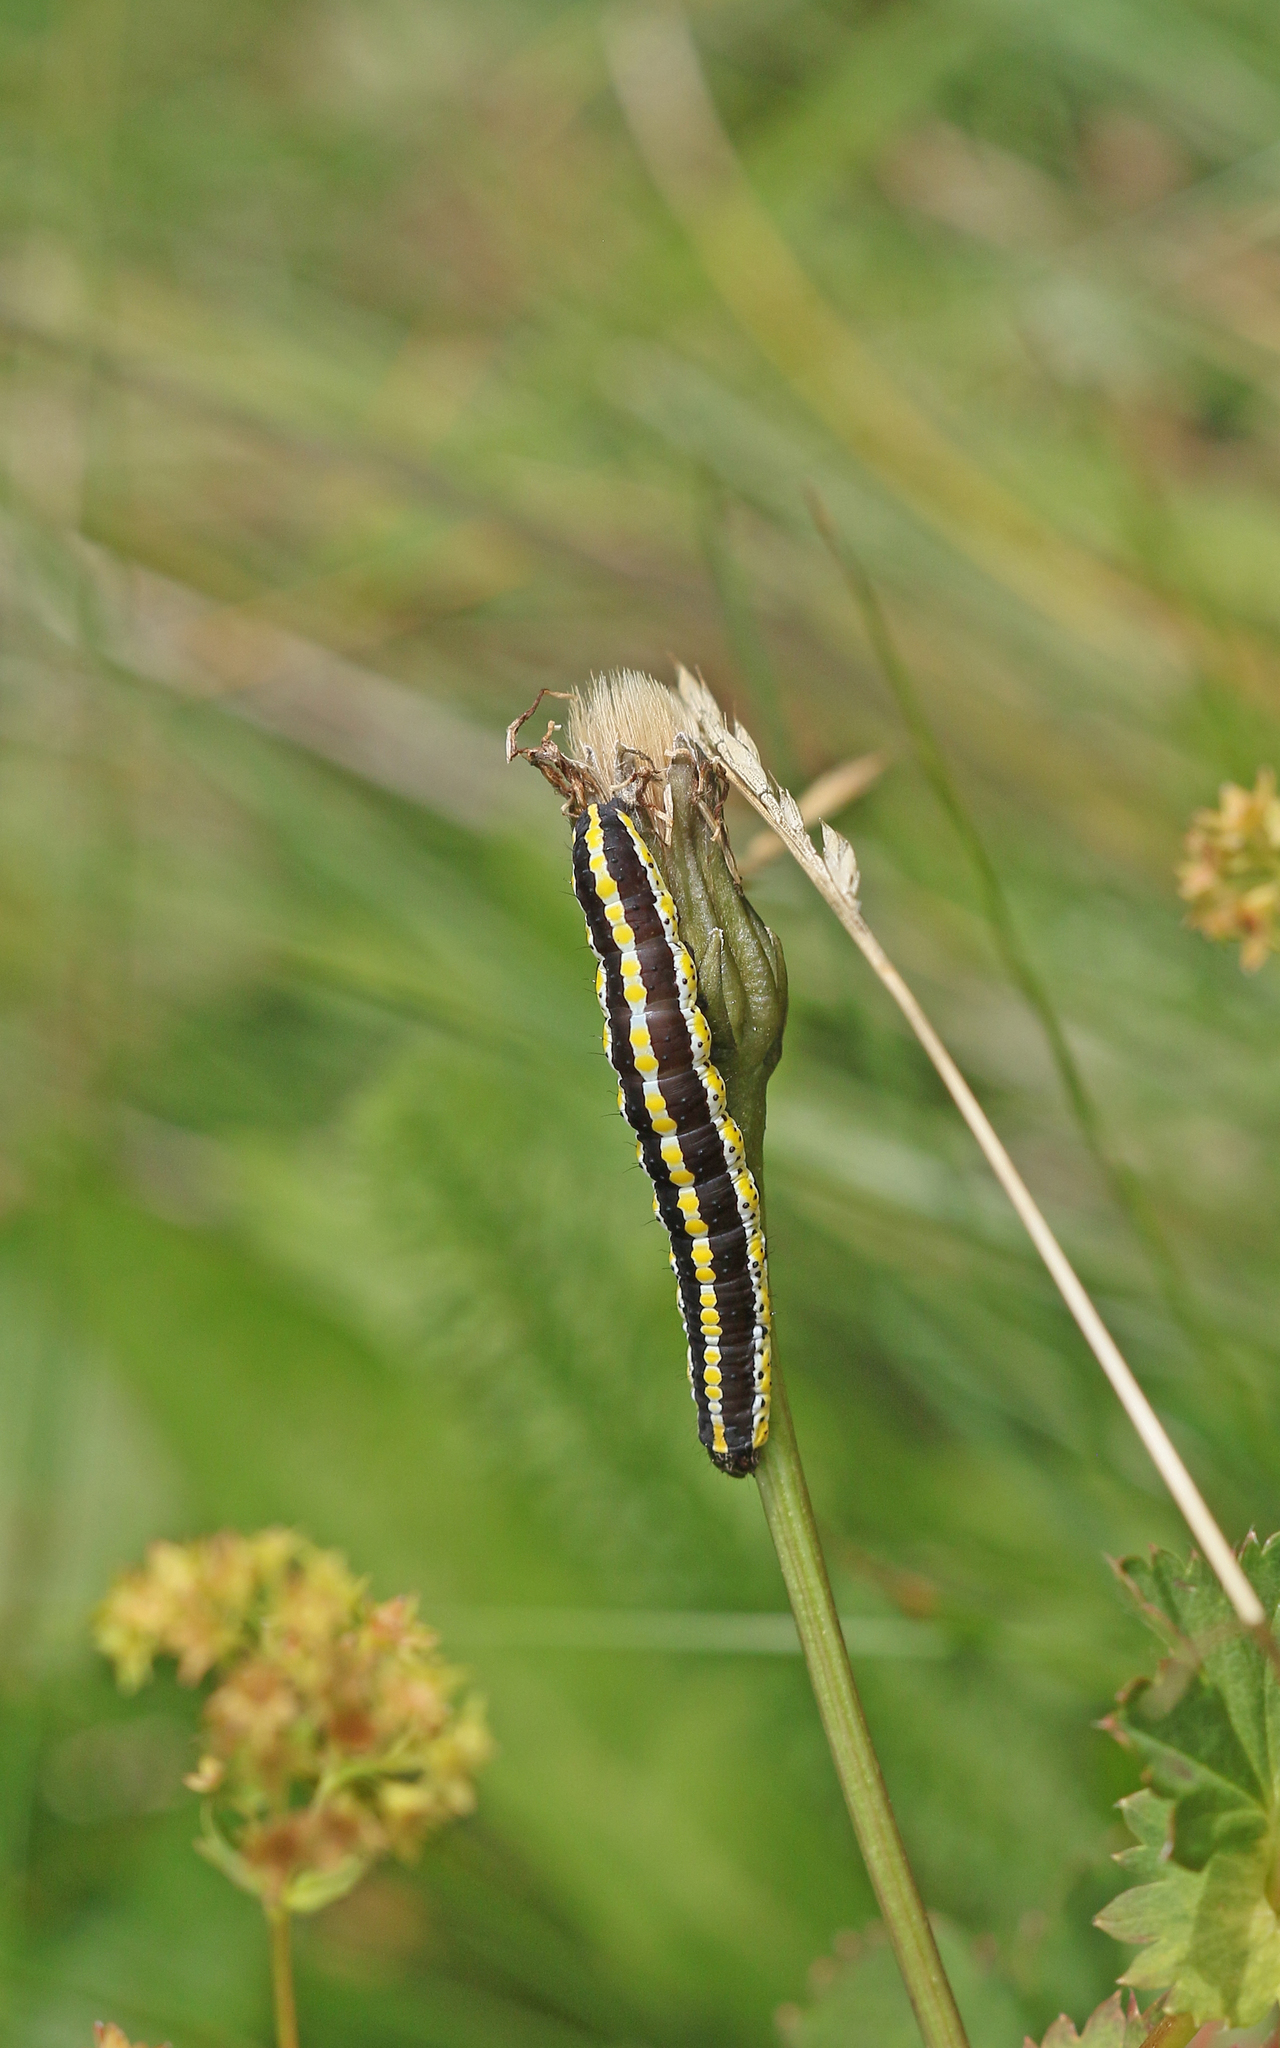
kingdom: Animalia
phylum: Arthropoda
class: Insecta
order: Lepidoptera
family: Noctuidae
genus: Cucullia
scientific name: Cucullia lucifuga
